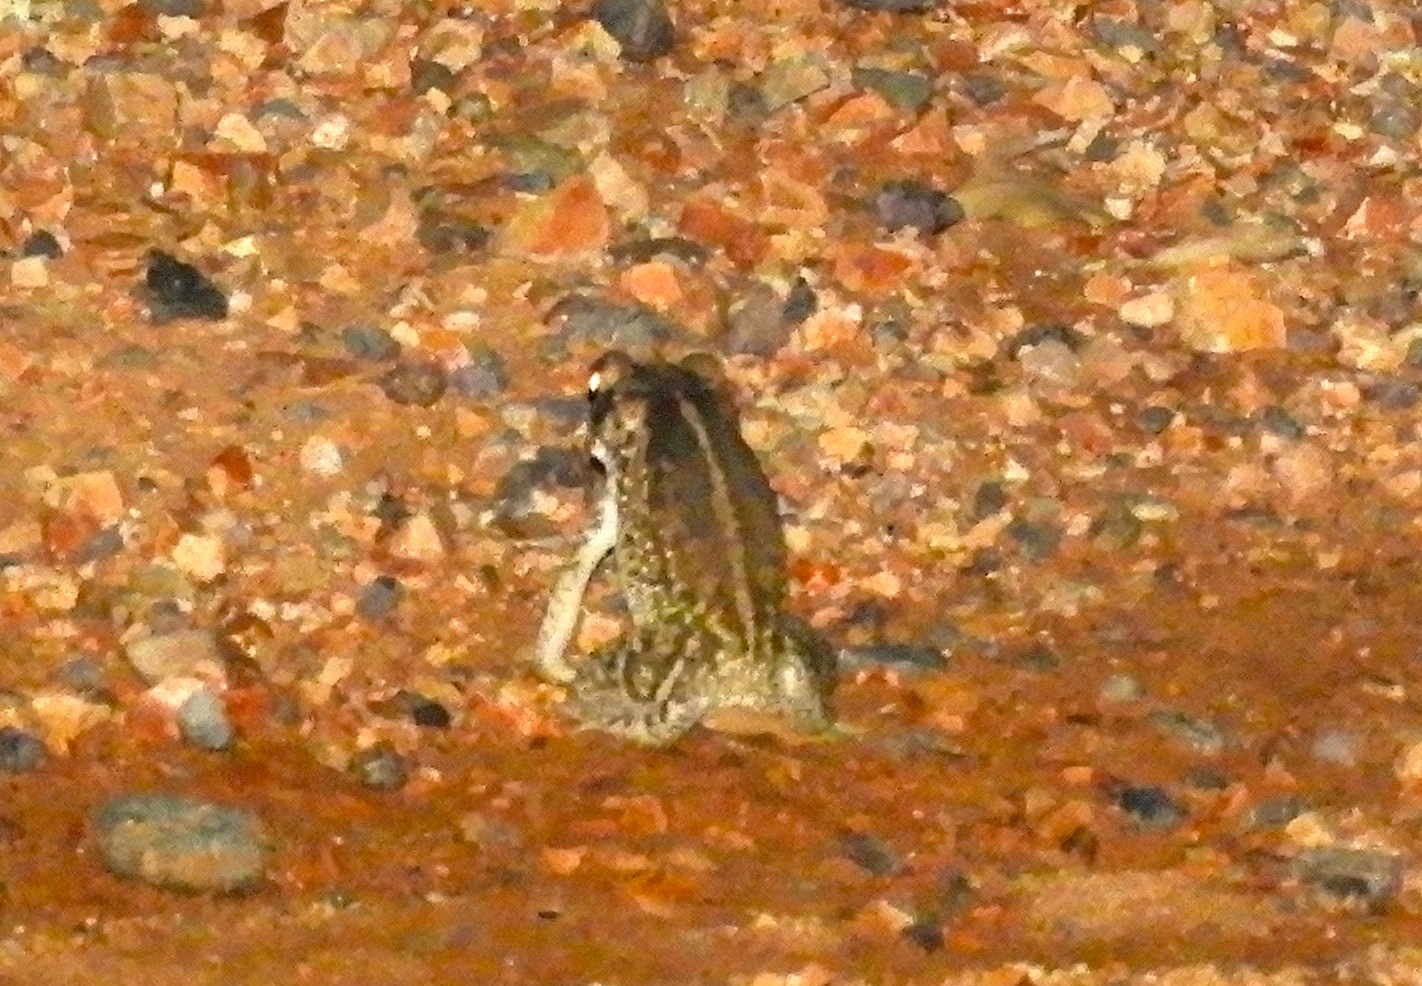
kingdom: Animalia
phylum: Chordata
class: Amphibia
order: Anura
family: Bufonidae
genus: Incilius
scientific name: Incilius mazatlanensis
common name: Sinaloa toad
